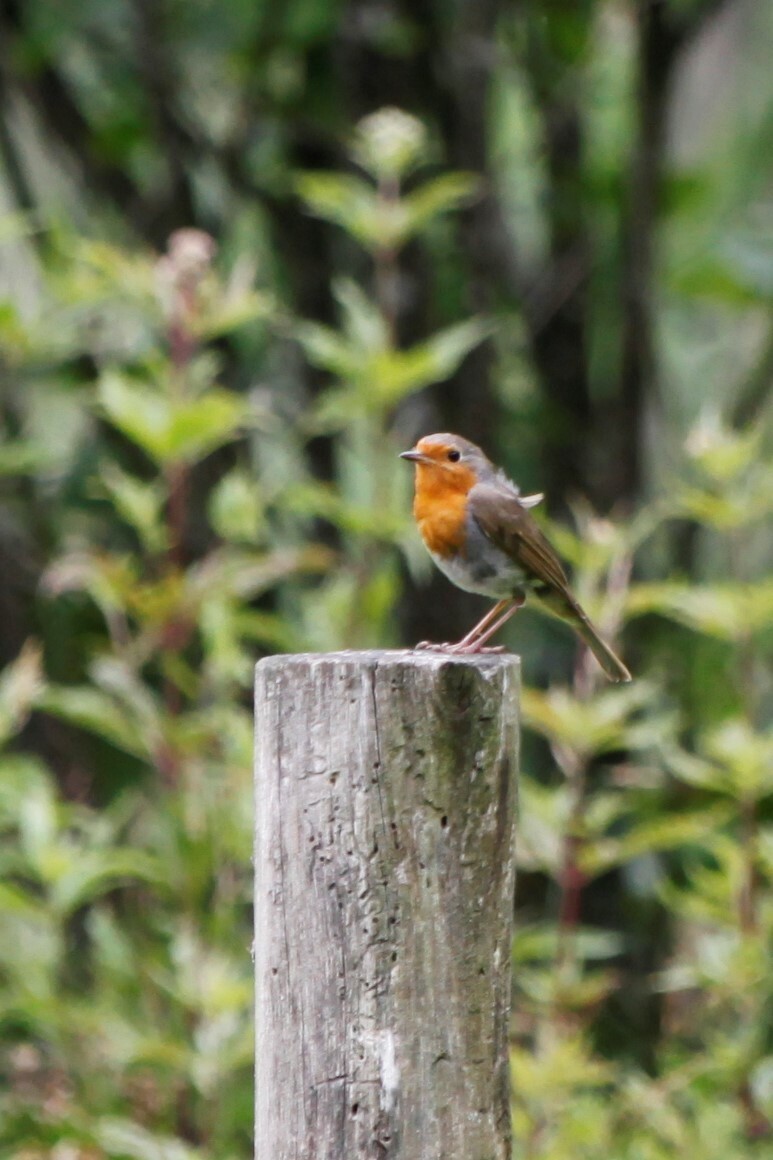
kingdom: Animalia
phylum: Chordata
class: Aves
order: Passeriformes
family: Muscicapidae
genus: Erithacus
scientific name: Erithacus rubecula
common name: European robin
